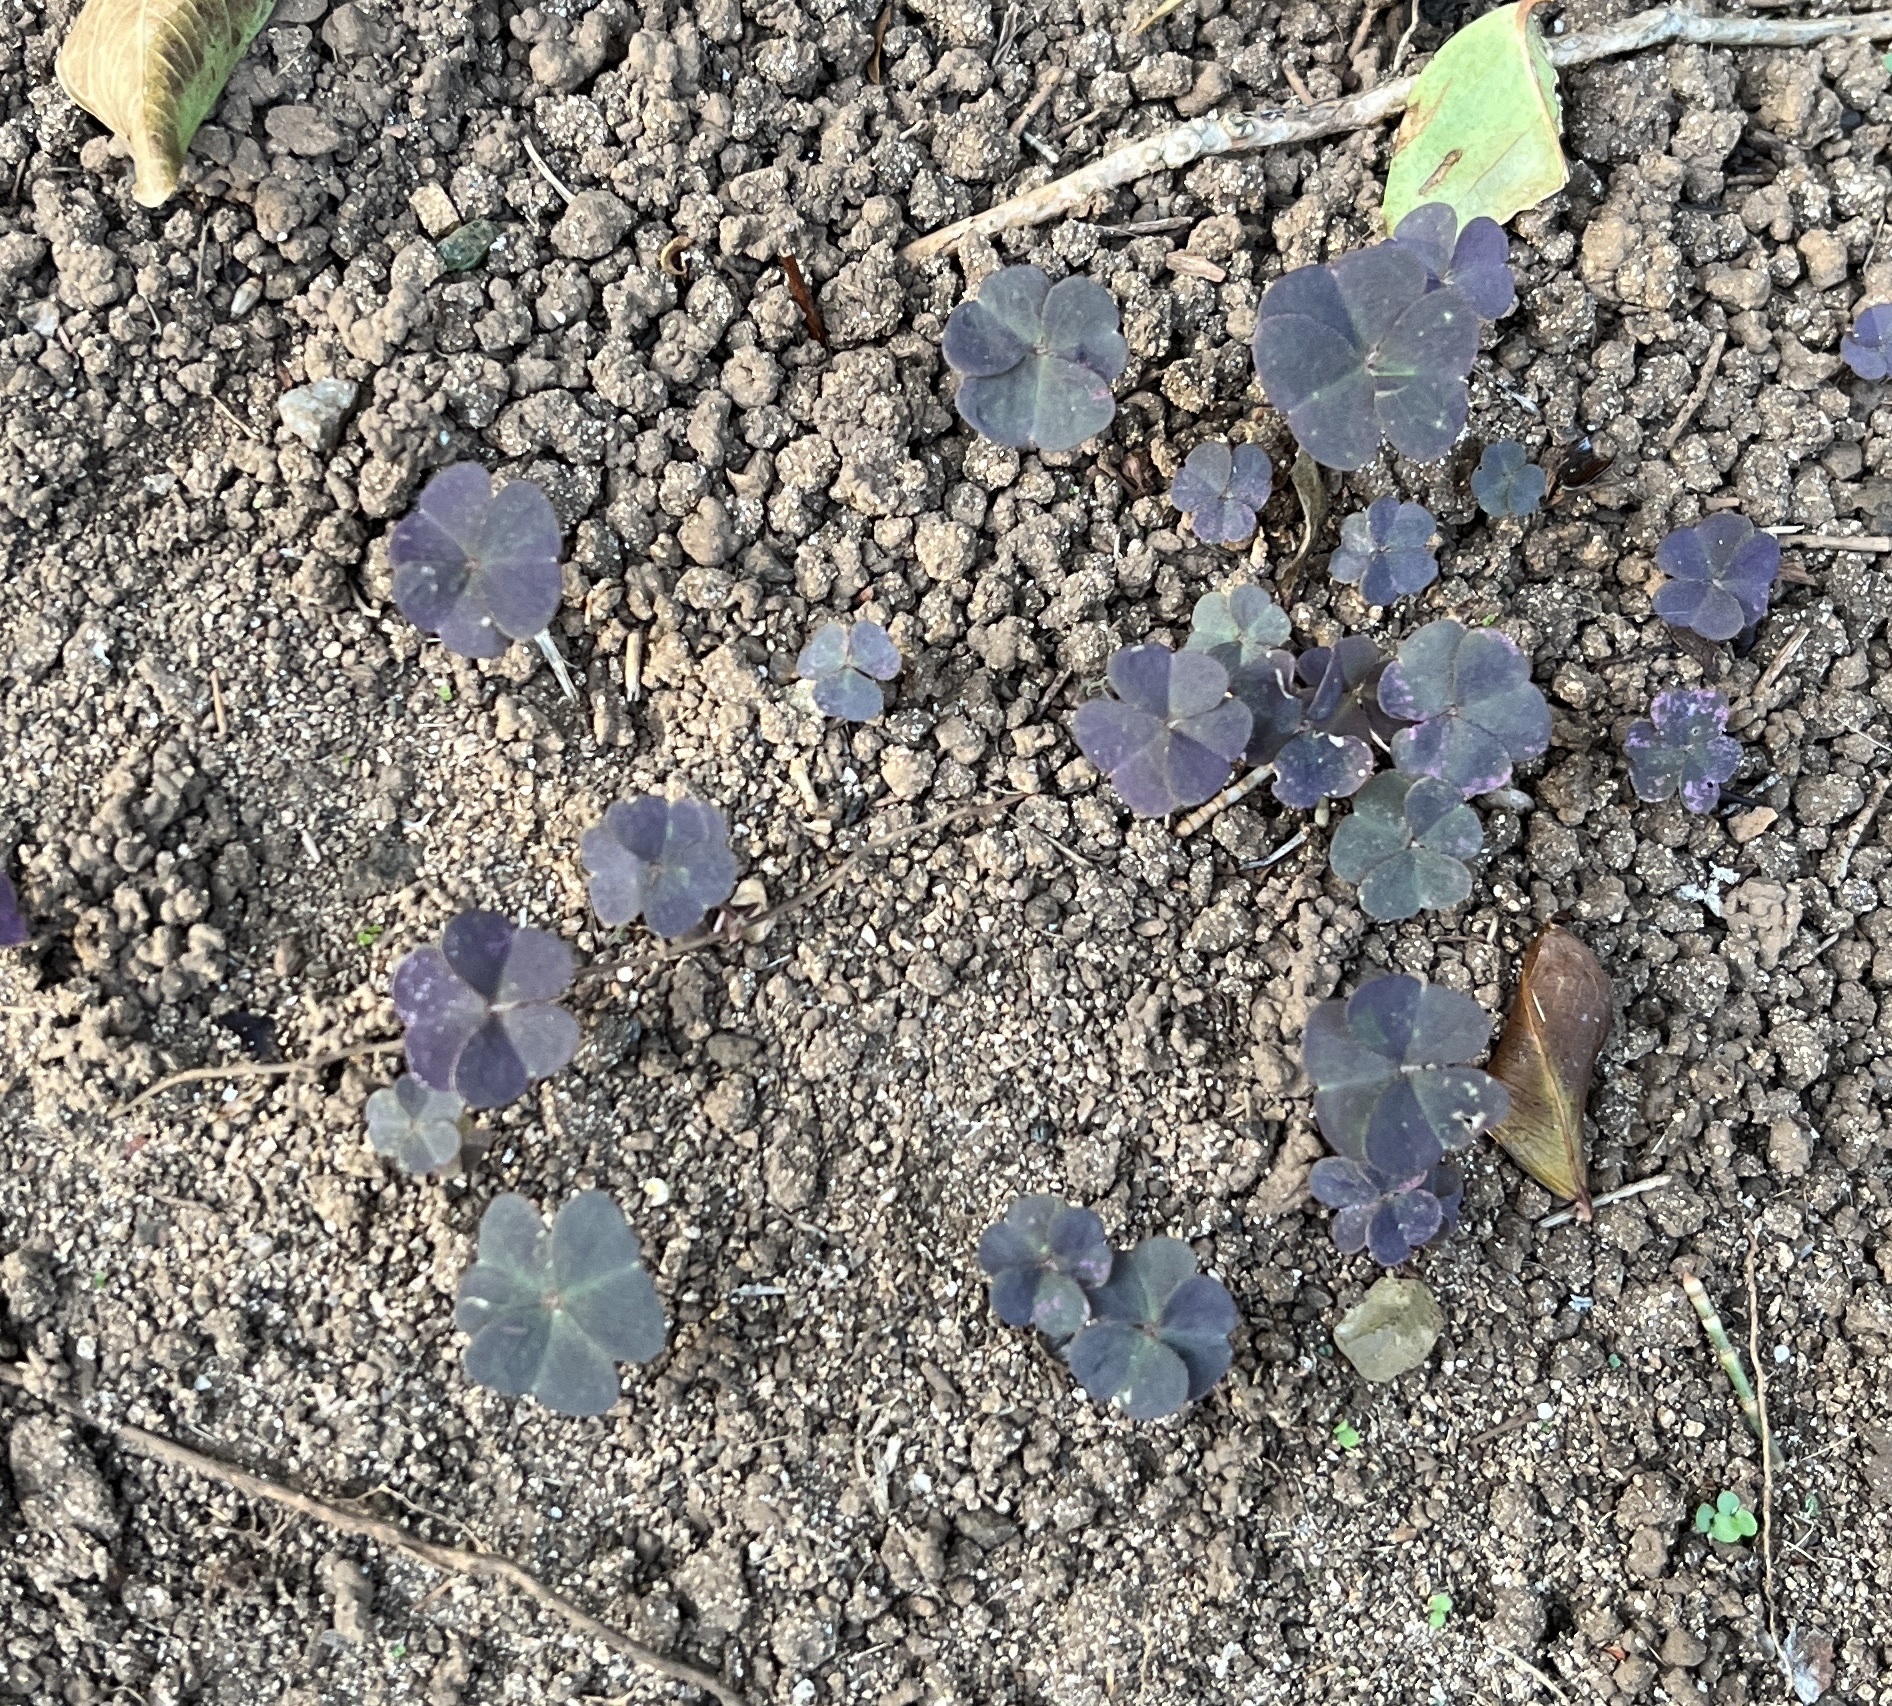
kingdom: Plantae
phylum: Tracheophyta
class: Magnoliopsida
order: Oxalidales
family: Oxalidaceae
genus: Oxalis
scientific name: Oxalis corniculata
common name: Procumbent yellow-sorrel
